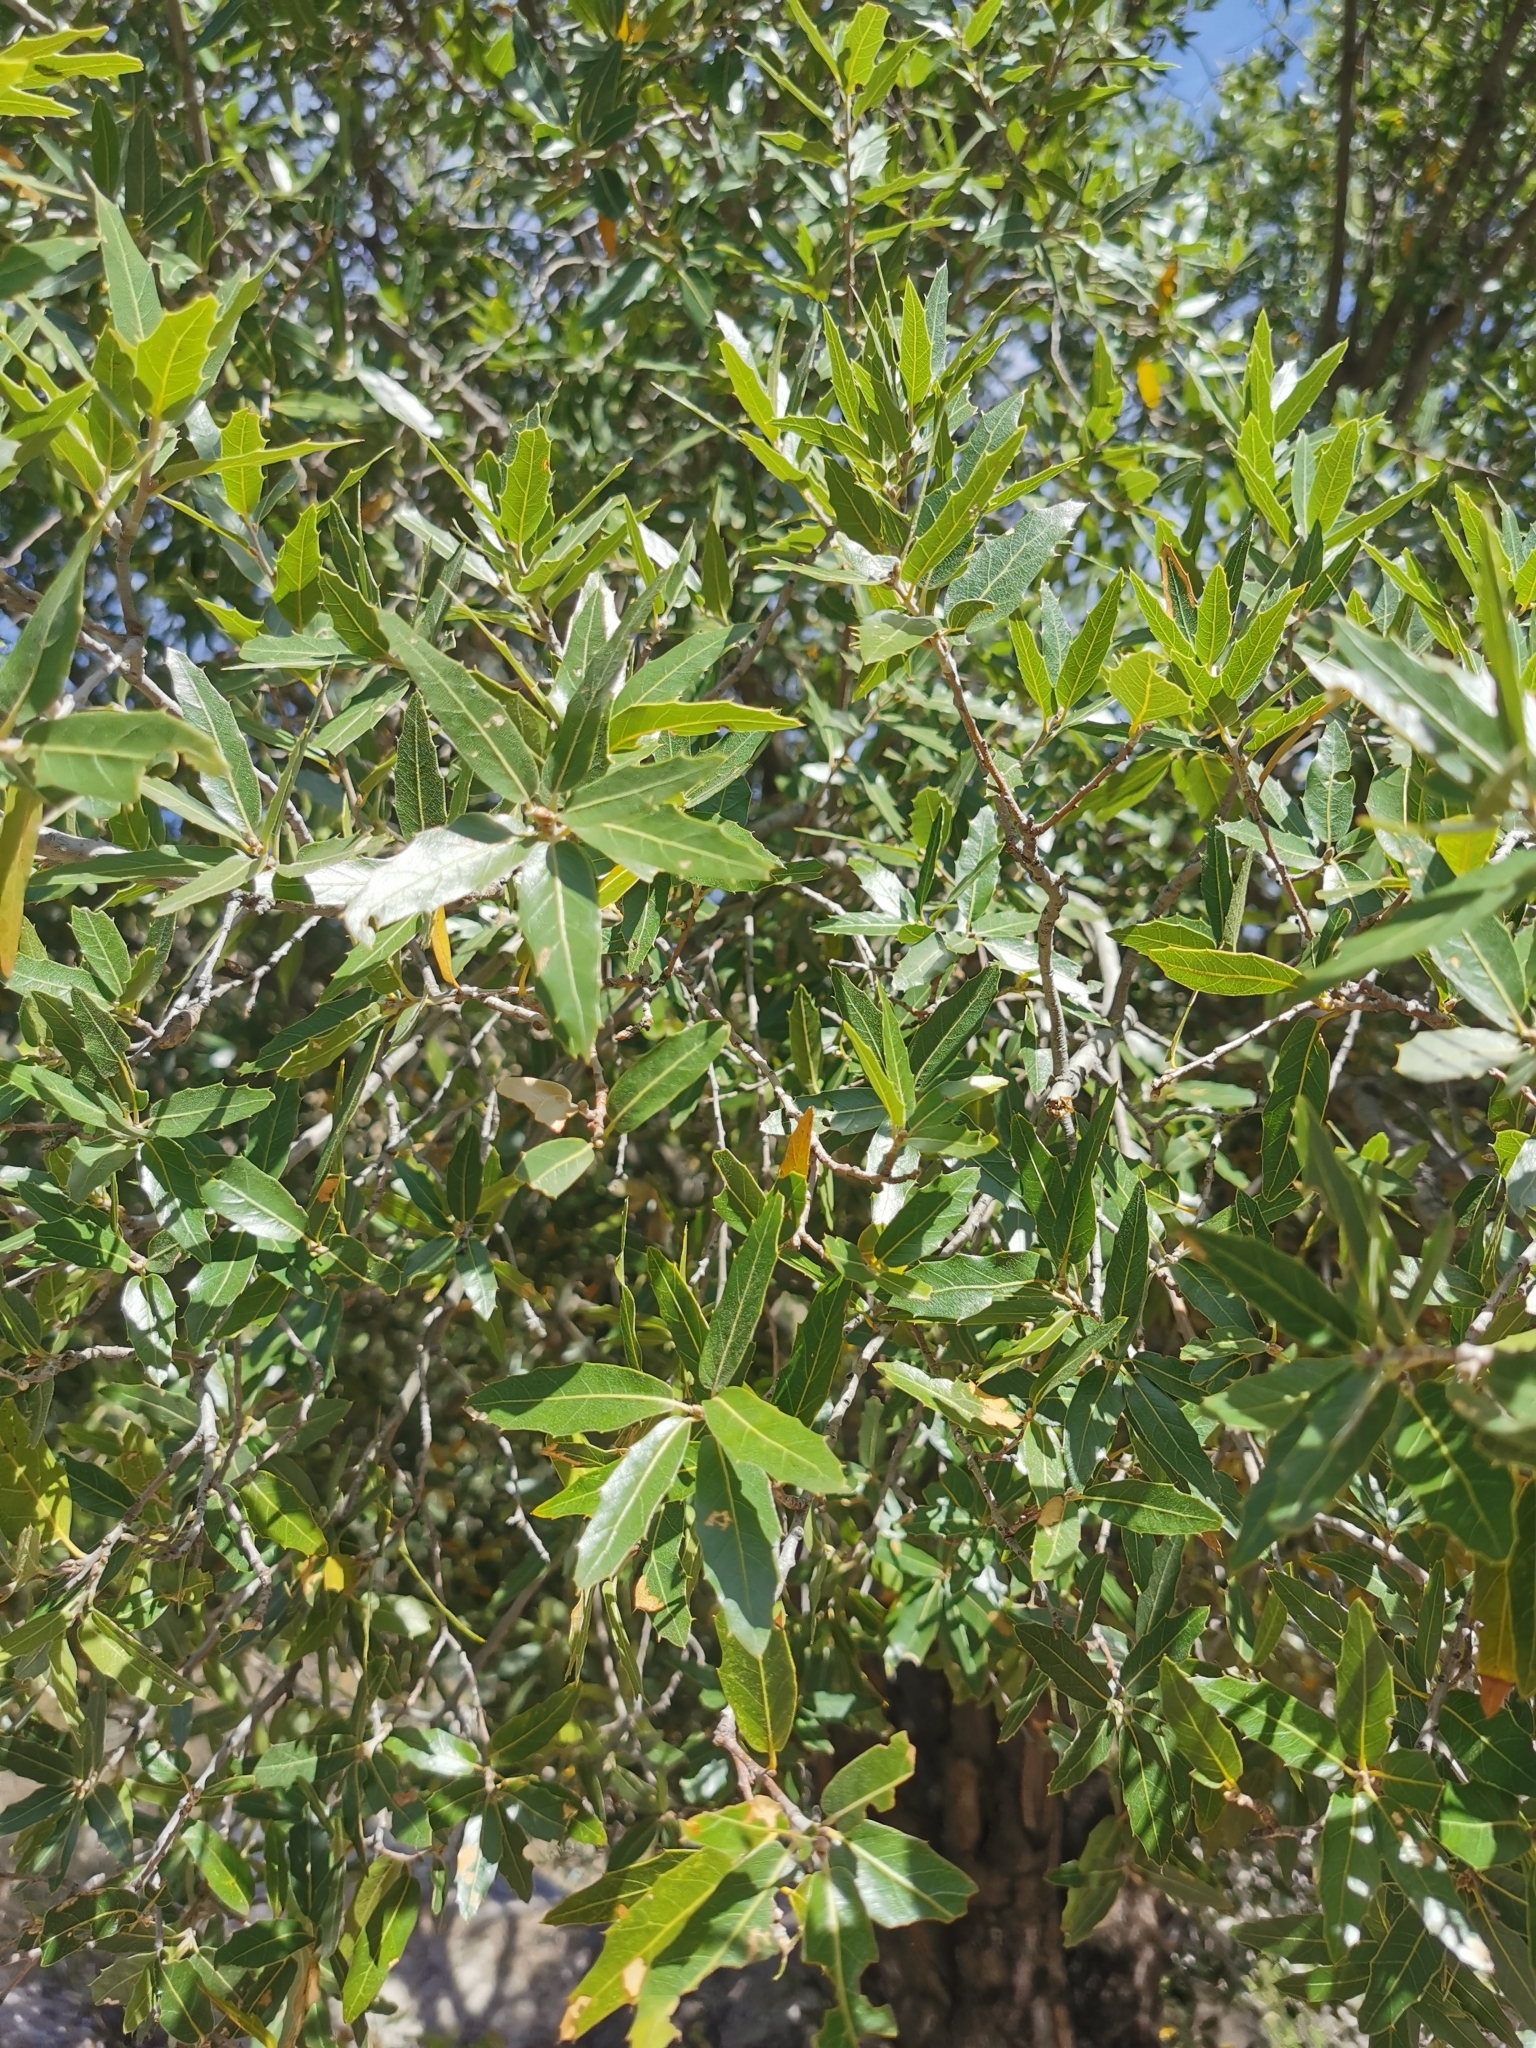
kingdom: Plantae
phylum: Tracheophyta
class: Magnoliopsida
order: Fagales
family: Fagaceae
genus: Quercus
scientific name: Quercus eduardi
